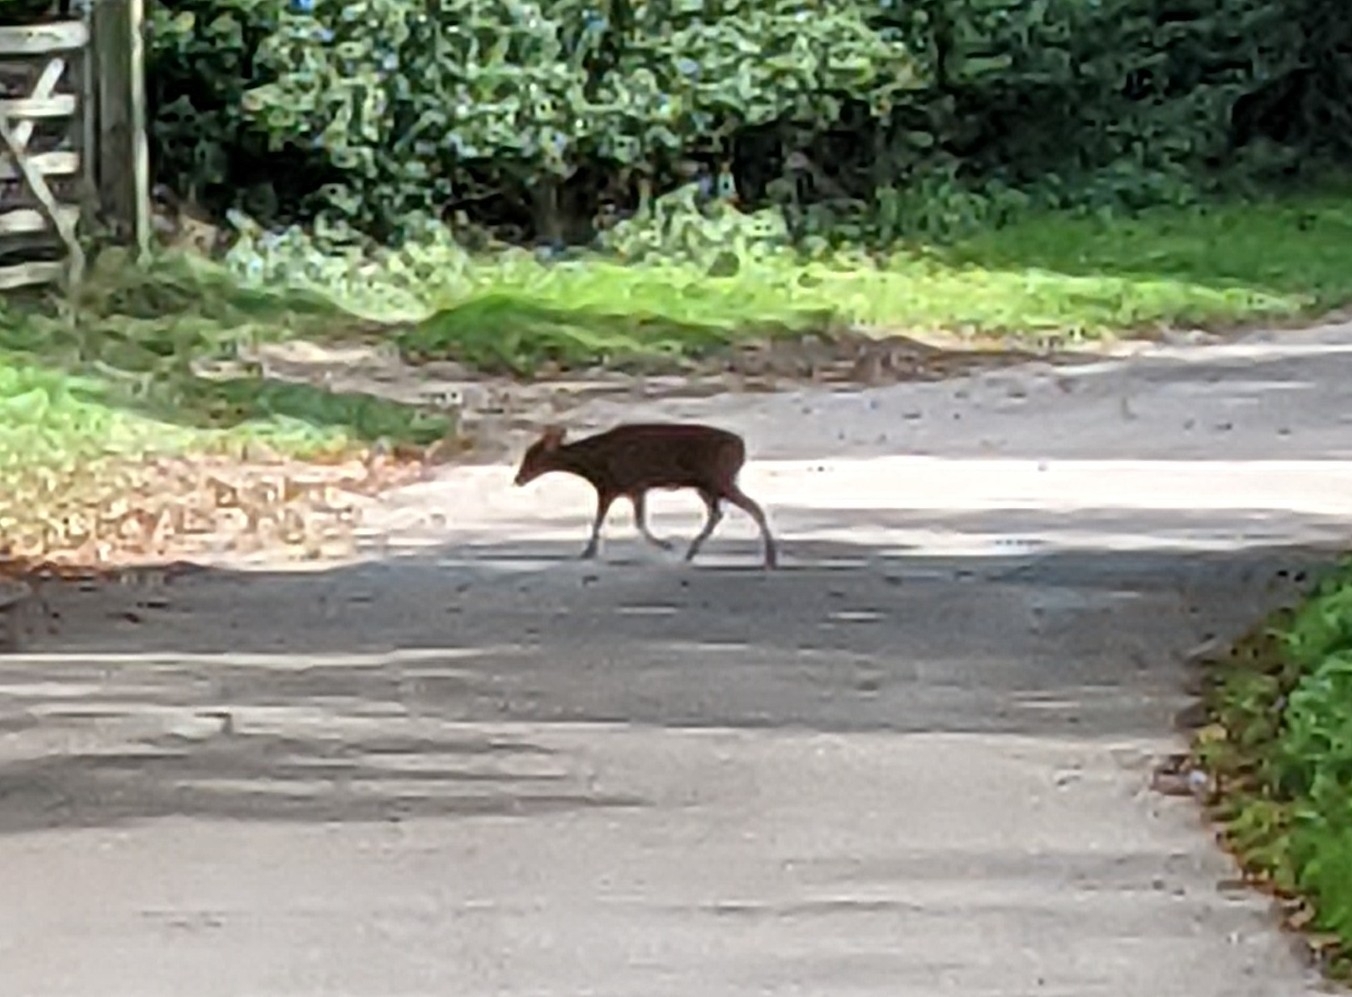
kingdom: Animalia
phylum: Chordata
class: Mammalia
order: Artiodactyla
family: Cervidae
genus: Muntiacus
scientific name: Muntiacus reevesi
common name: Reeves' muntjac
